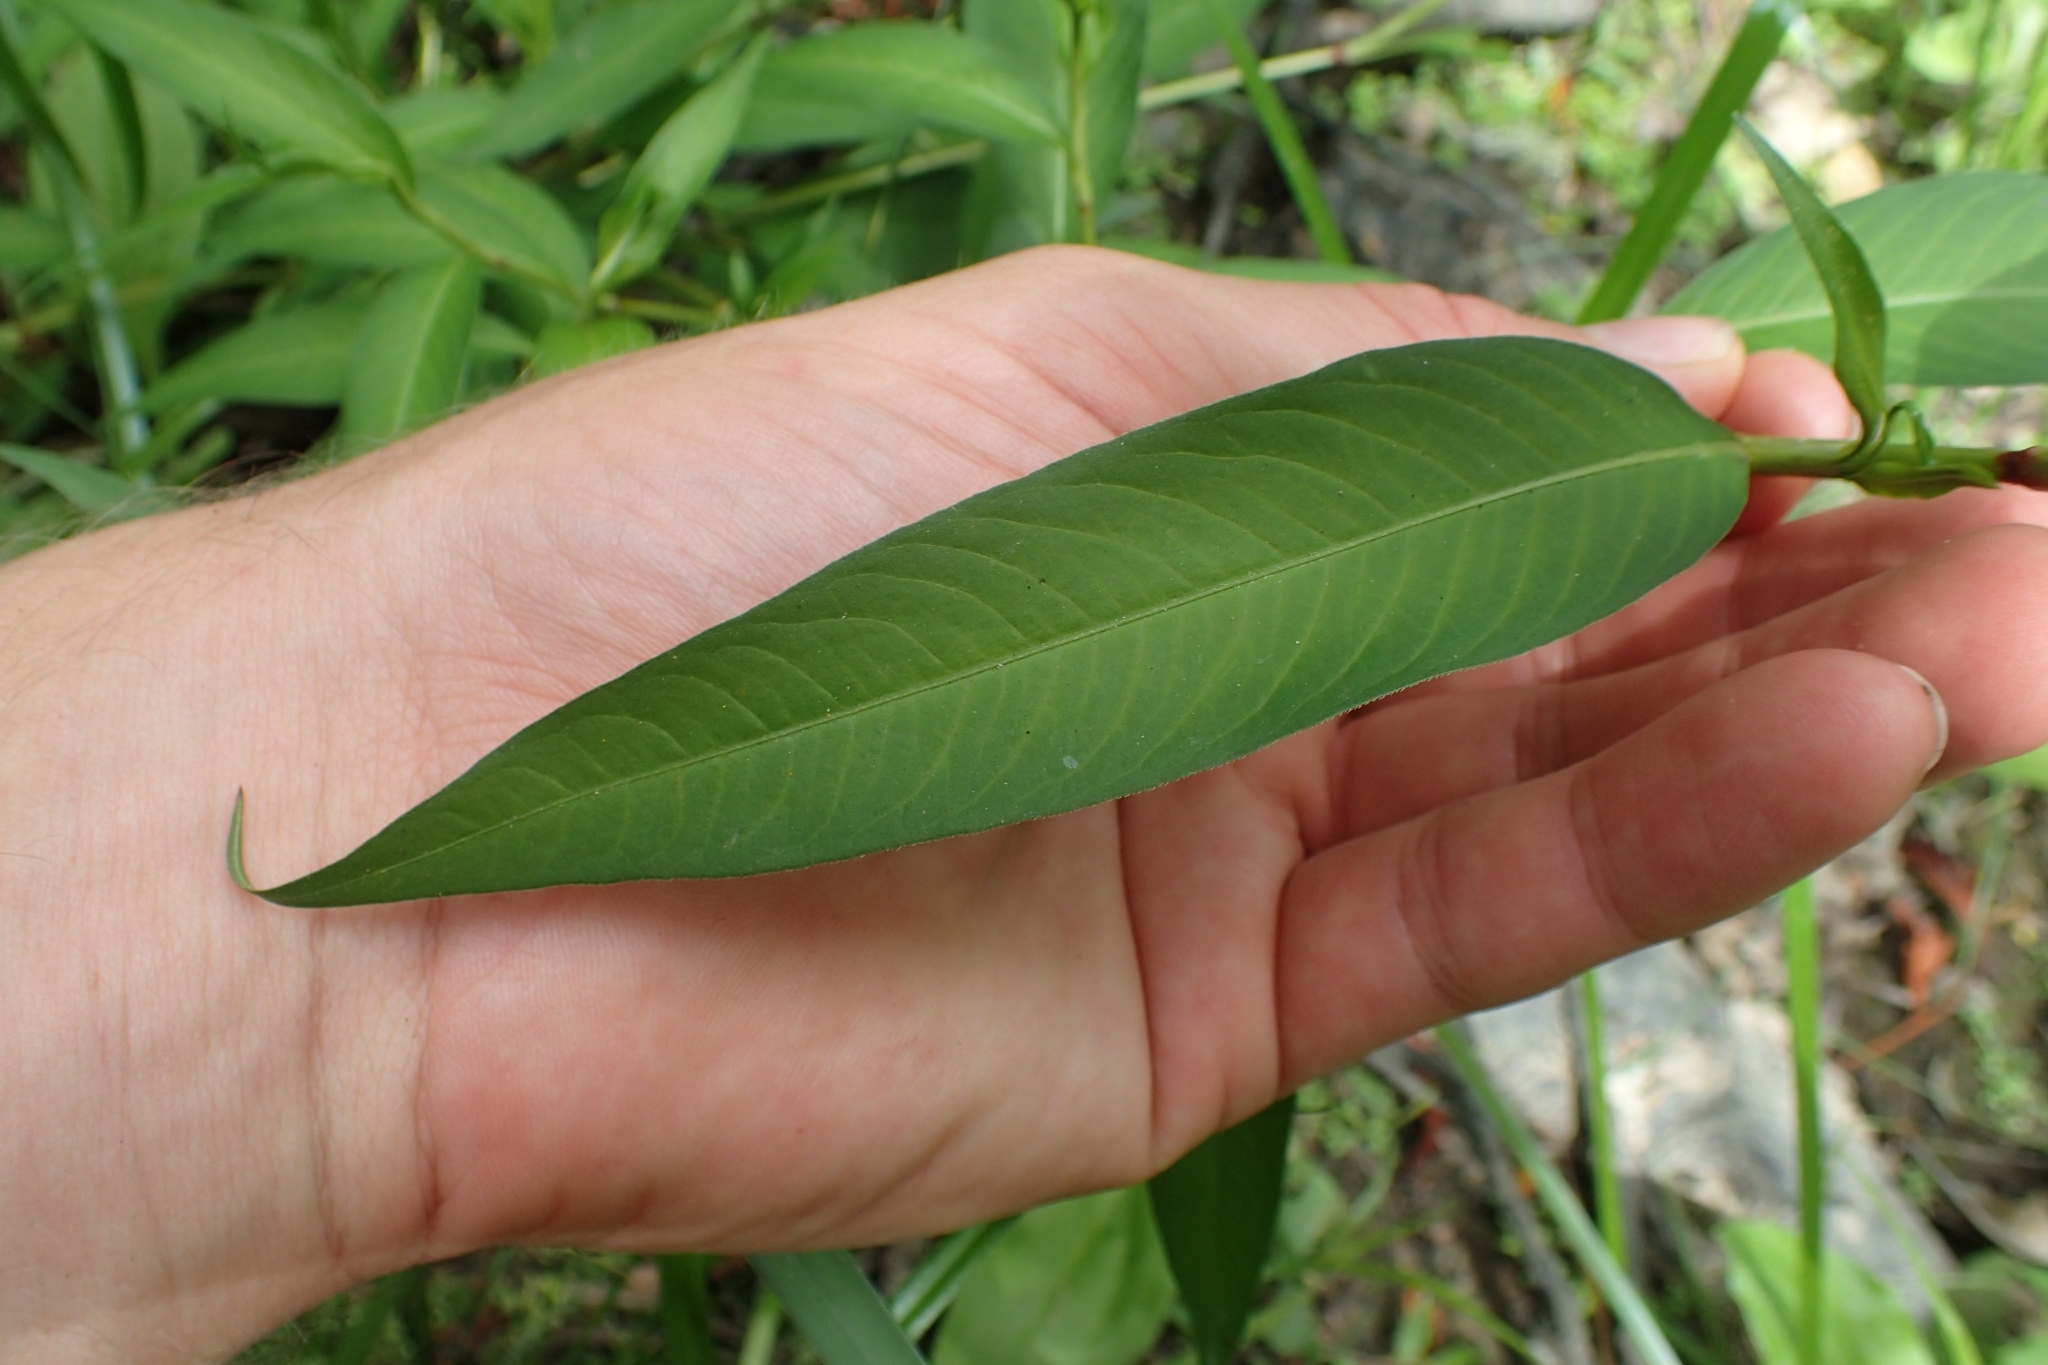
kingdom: Plantae
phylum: Tracheophyta
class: Magnoliopsida
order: Caryophyllales
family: Polygonaceae
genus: Persicaria
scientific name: Persicaria hydropiper
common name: Water-pepper
